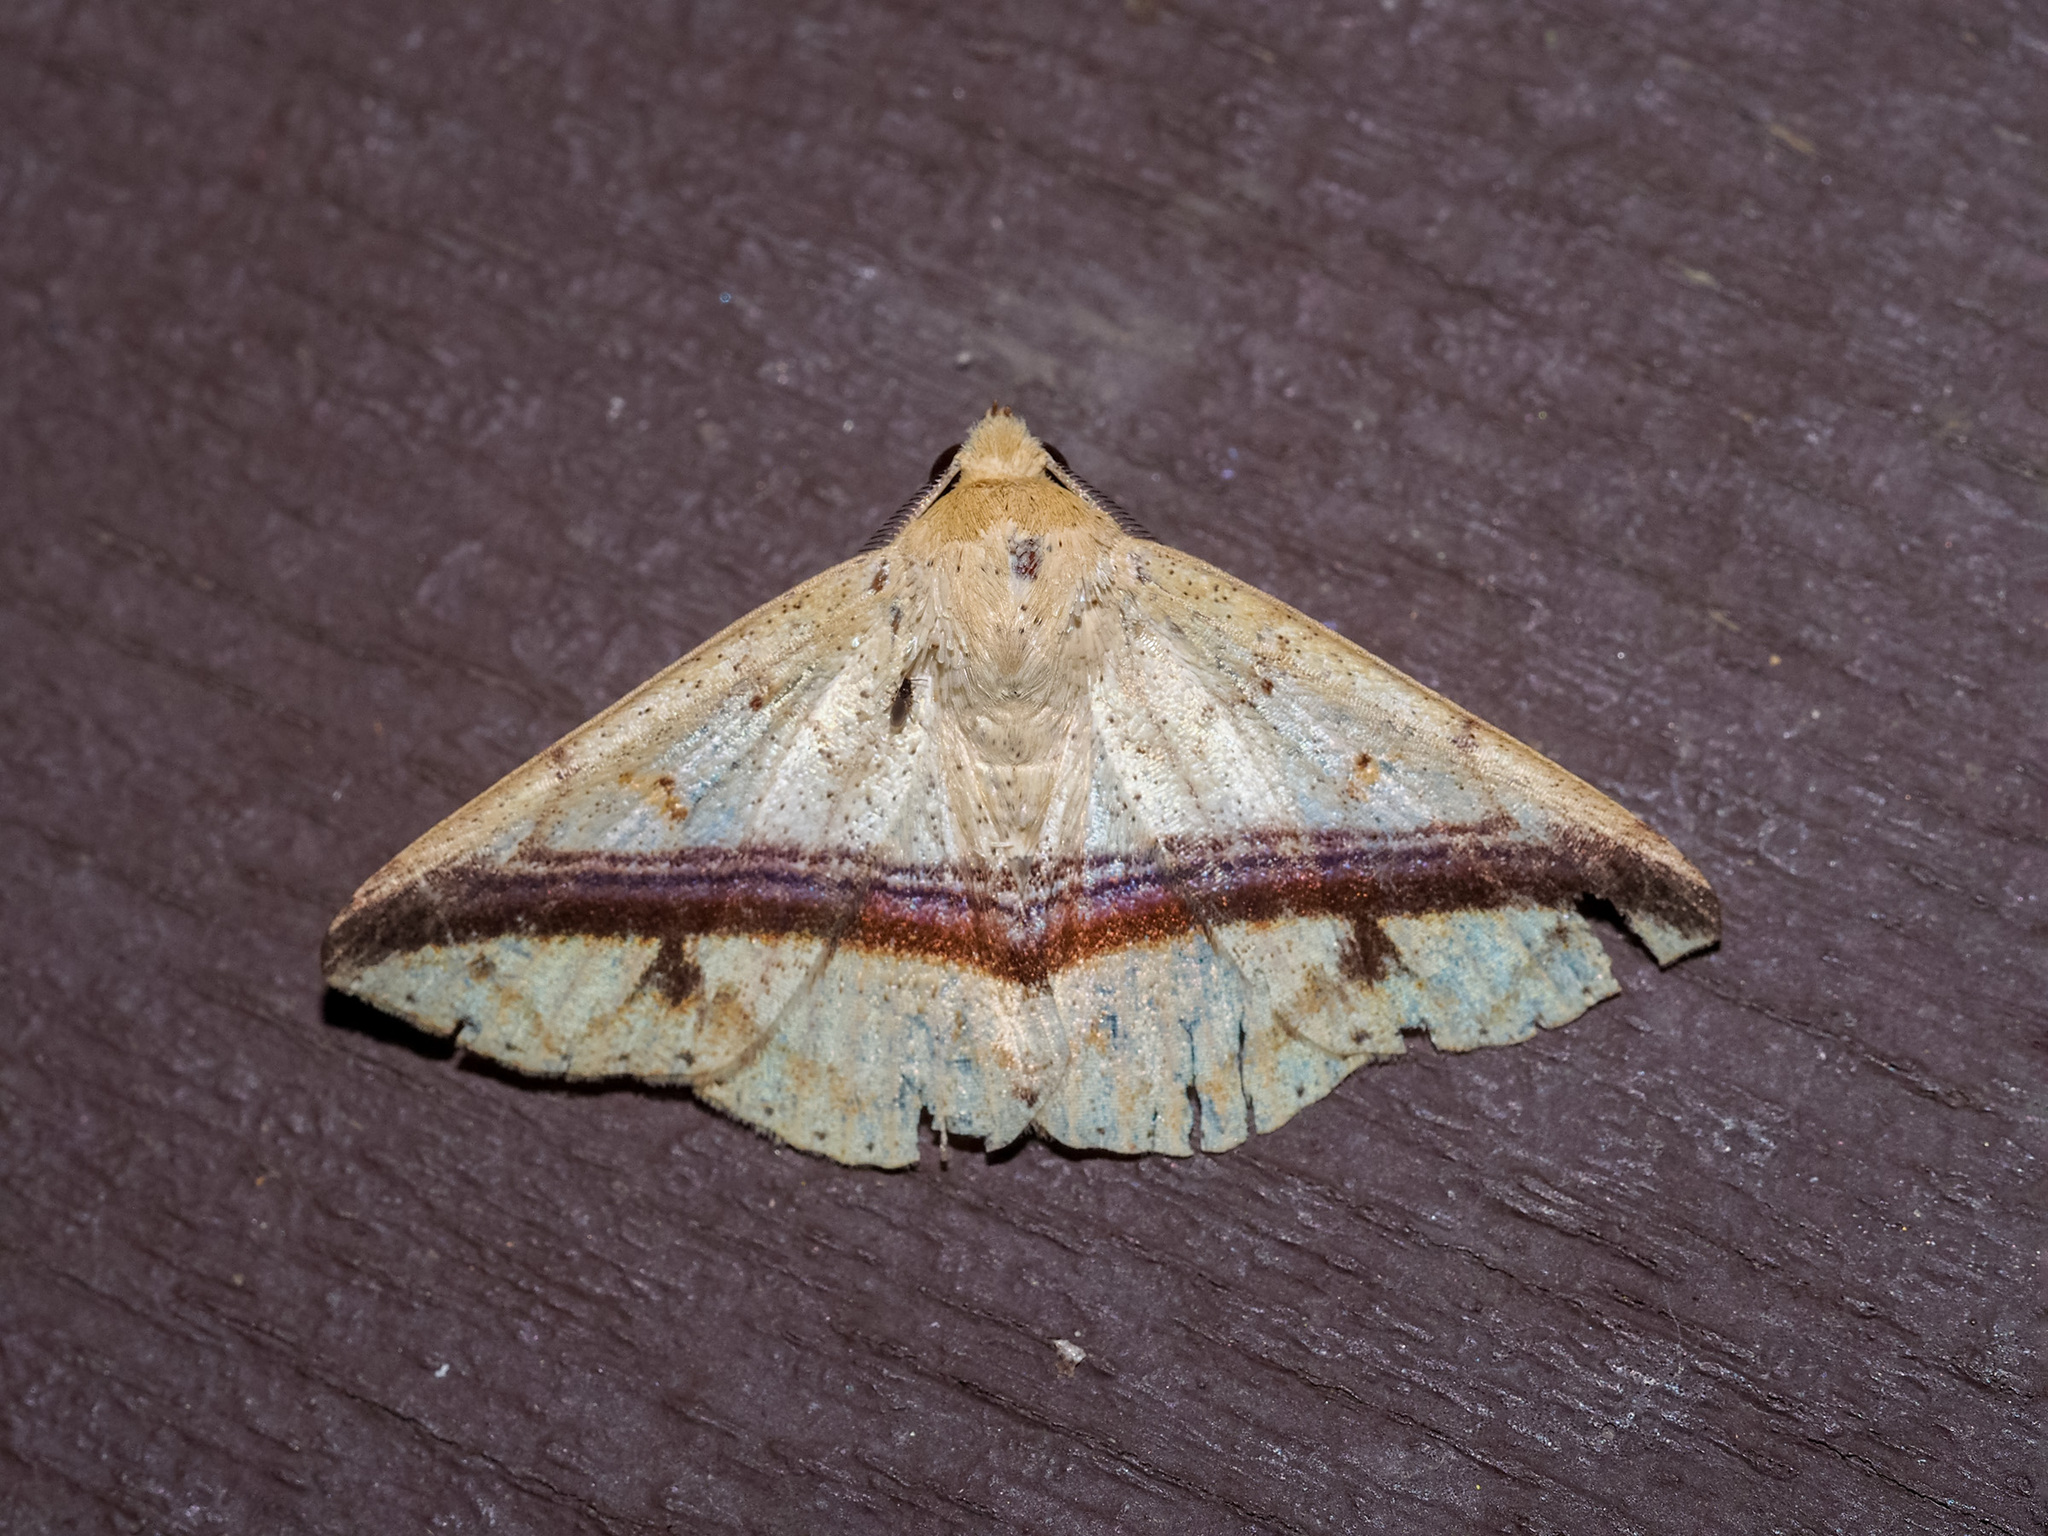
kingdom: Animalia
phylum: Arthropoda
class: Insecta
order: Lepidoptera
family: Erebidae
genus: Ugia
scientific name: Ugia eugrapha
